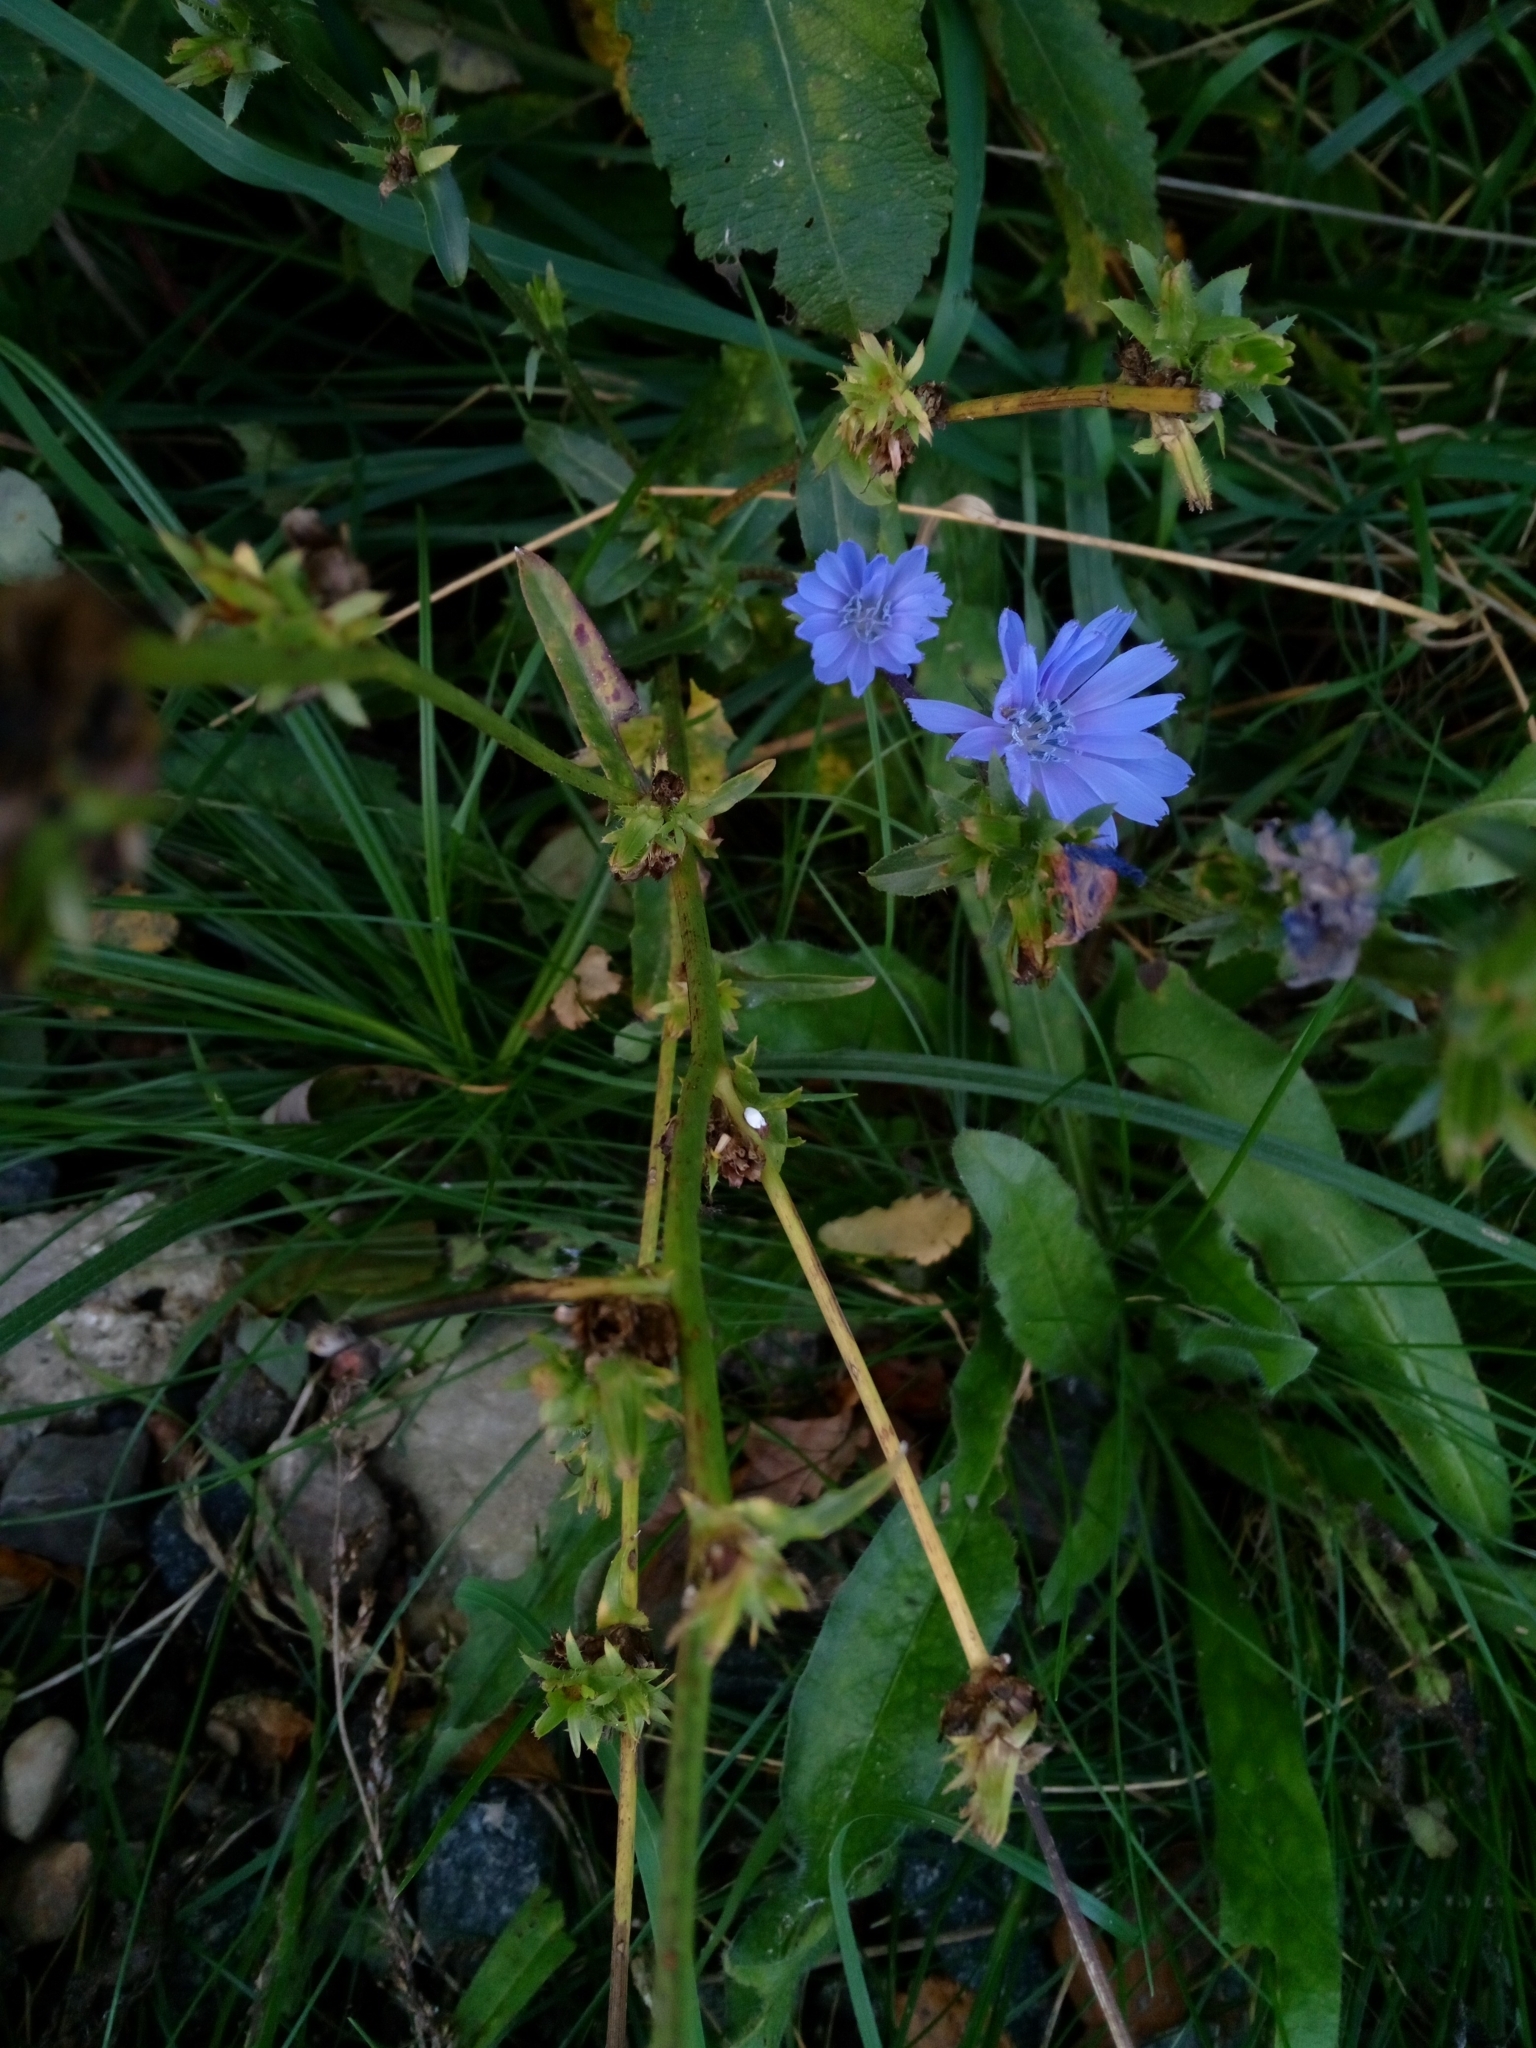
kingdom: Plantae
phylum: Tracheophyta
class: Magnoliopsida
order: Asterales
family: Asteraceae
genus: Cichorium
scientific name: Cichorium intybus
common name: Chicory
